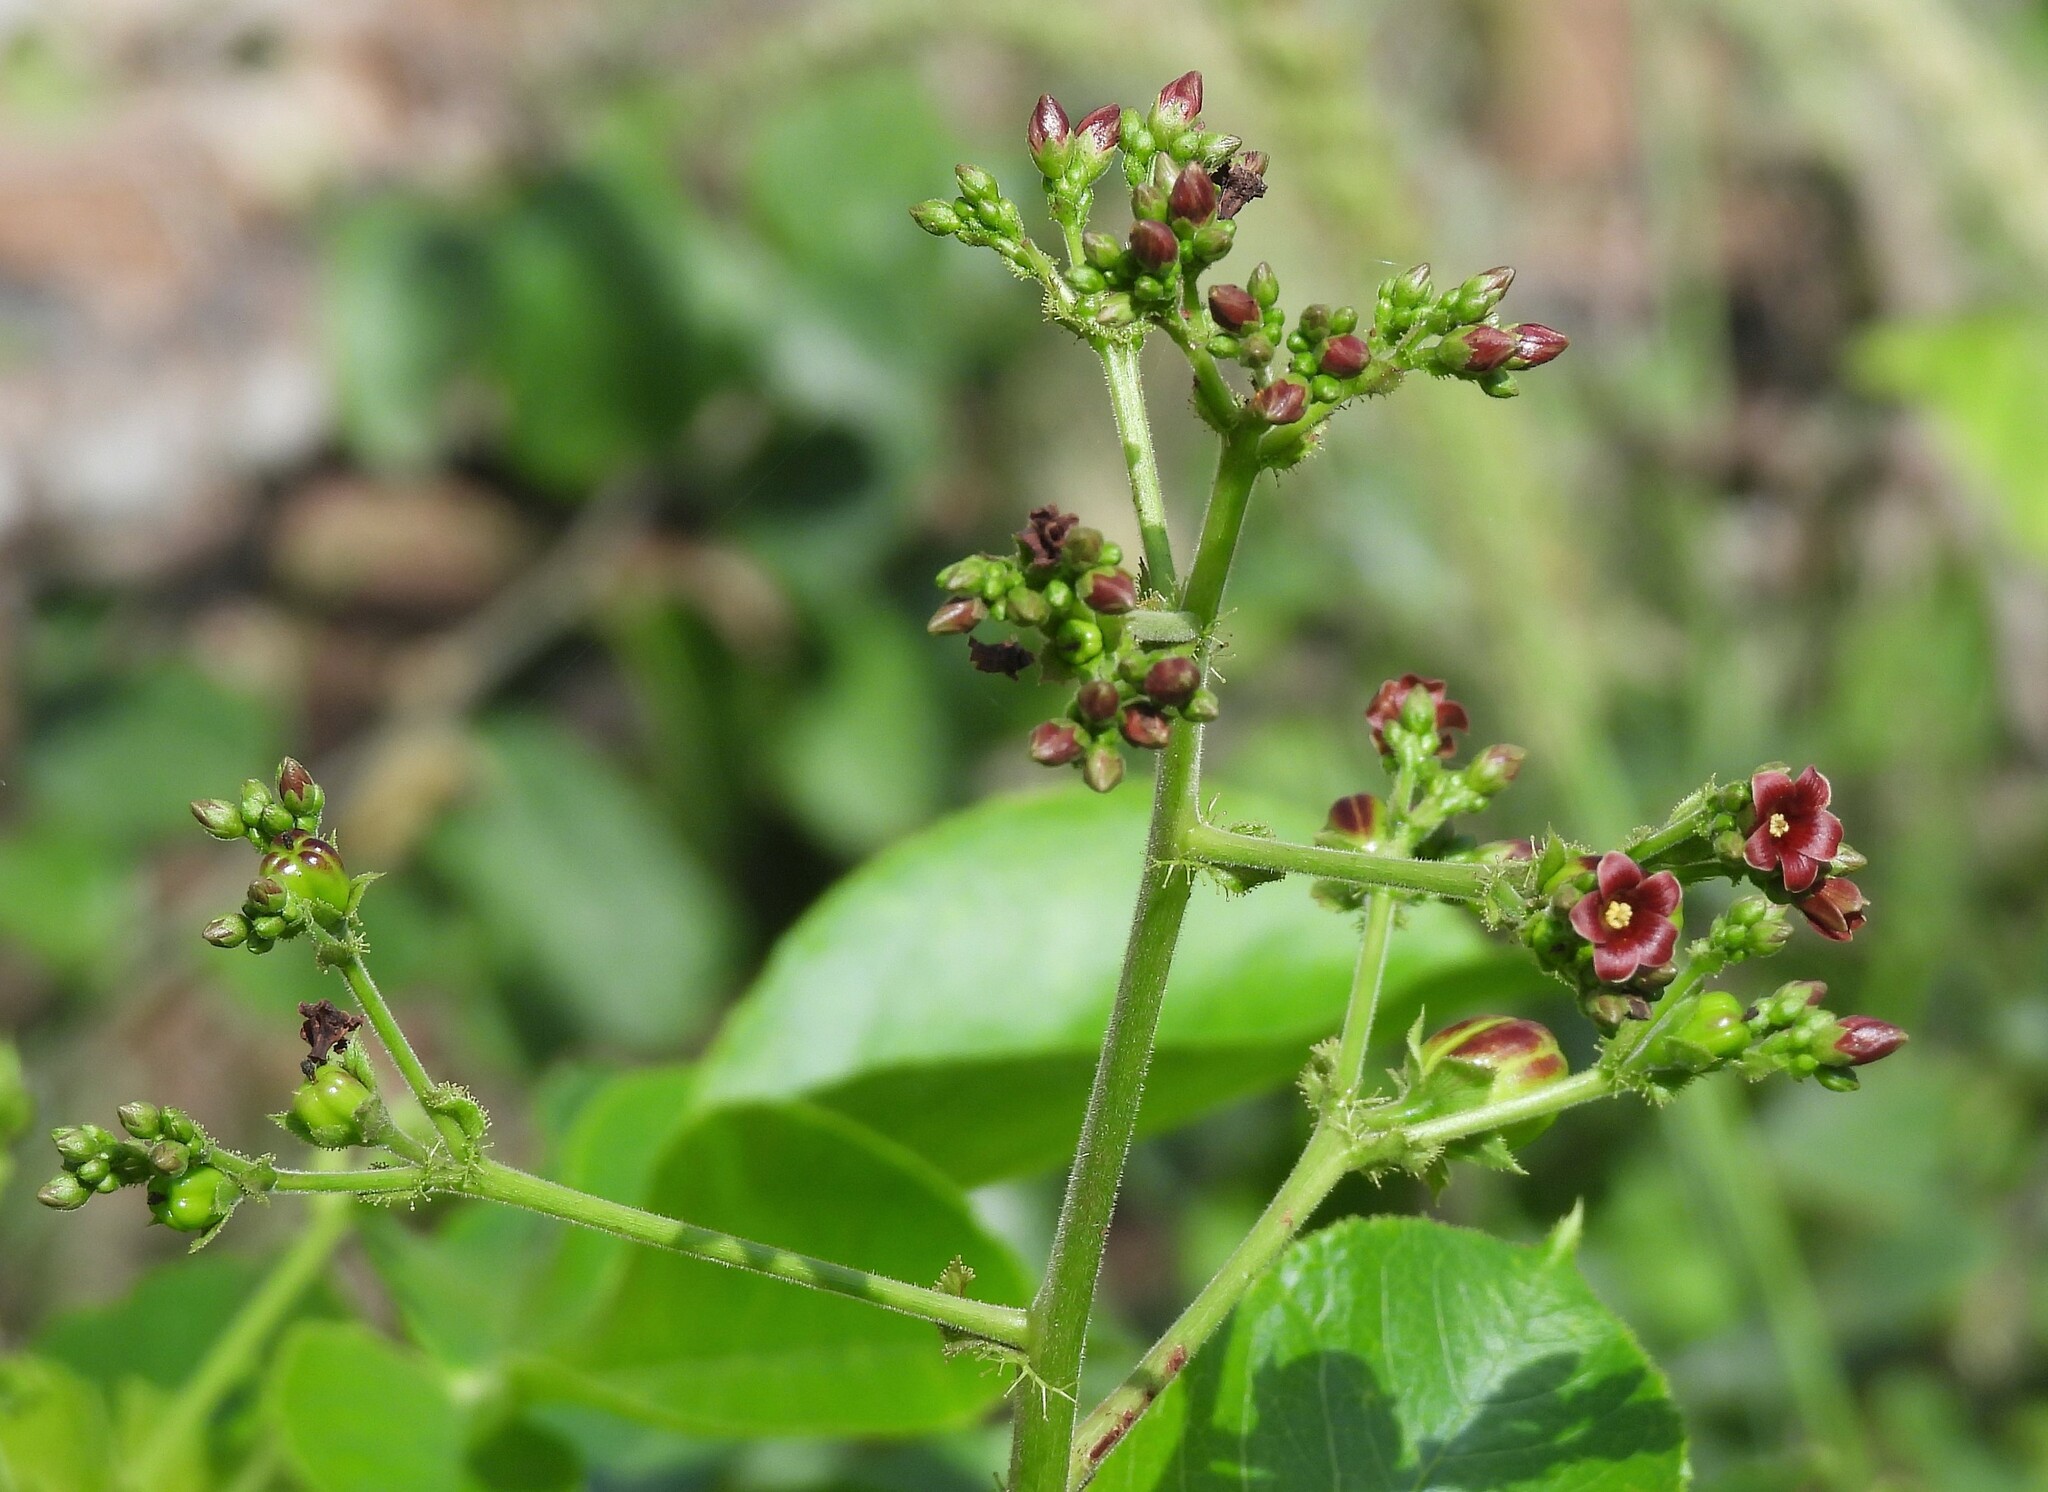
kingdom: Plantae
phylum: Tracheophyta
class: Magnoliopsida
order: Malpighiales
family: Euphorbiaceae
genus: Jatropha
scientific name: Jatropha excisa
